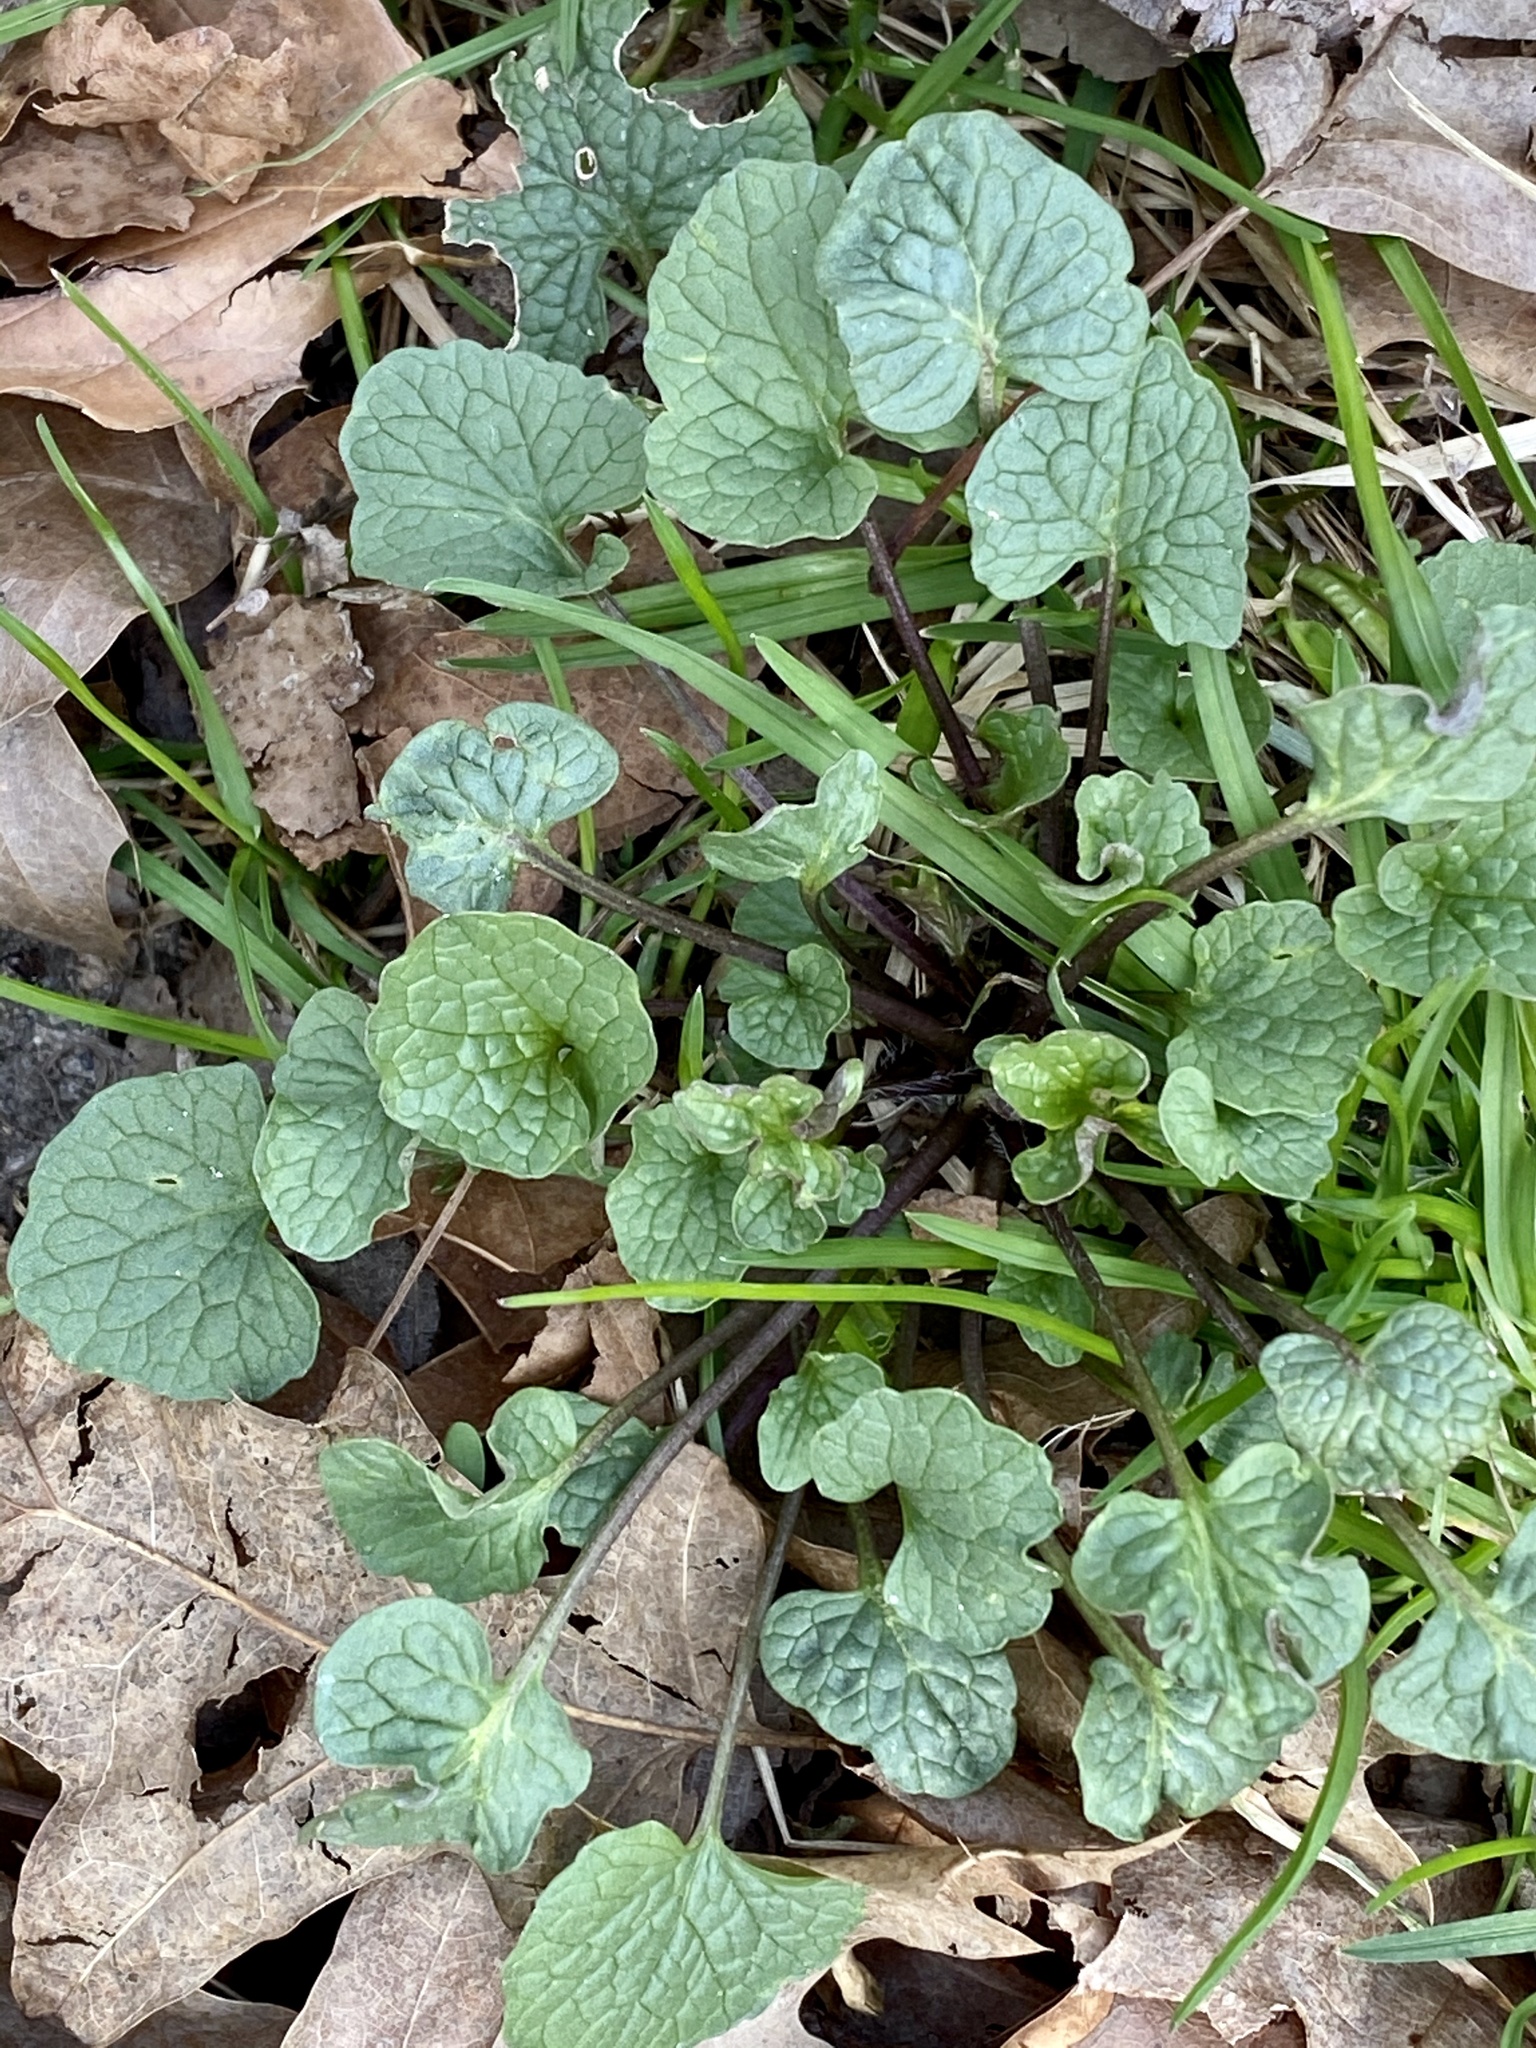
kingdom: Plantae
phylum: Tracheophyta
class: Magnoliopsida
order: Brassicales
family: Brassicaceae
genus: Alliaria
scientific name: Alliaria petiolata
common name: Garlic mustard
